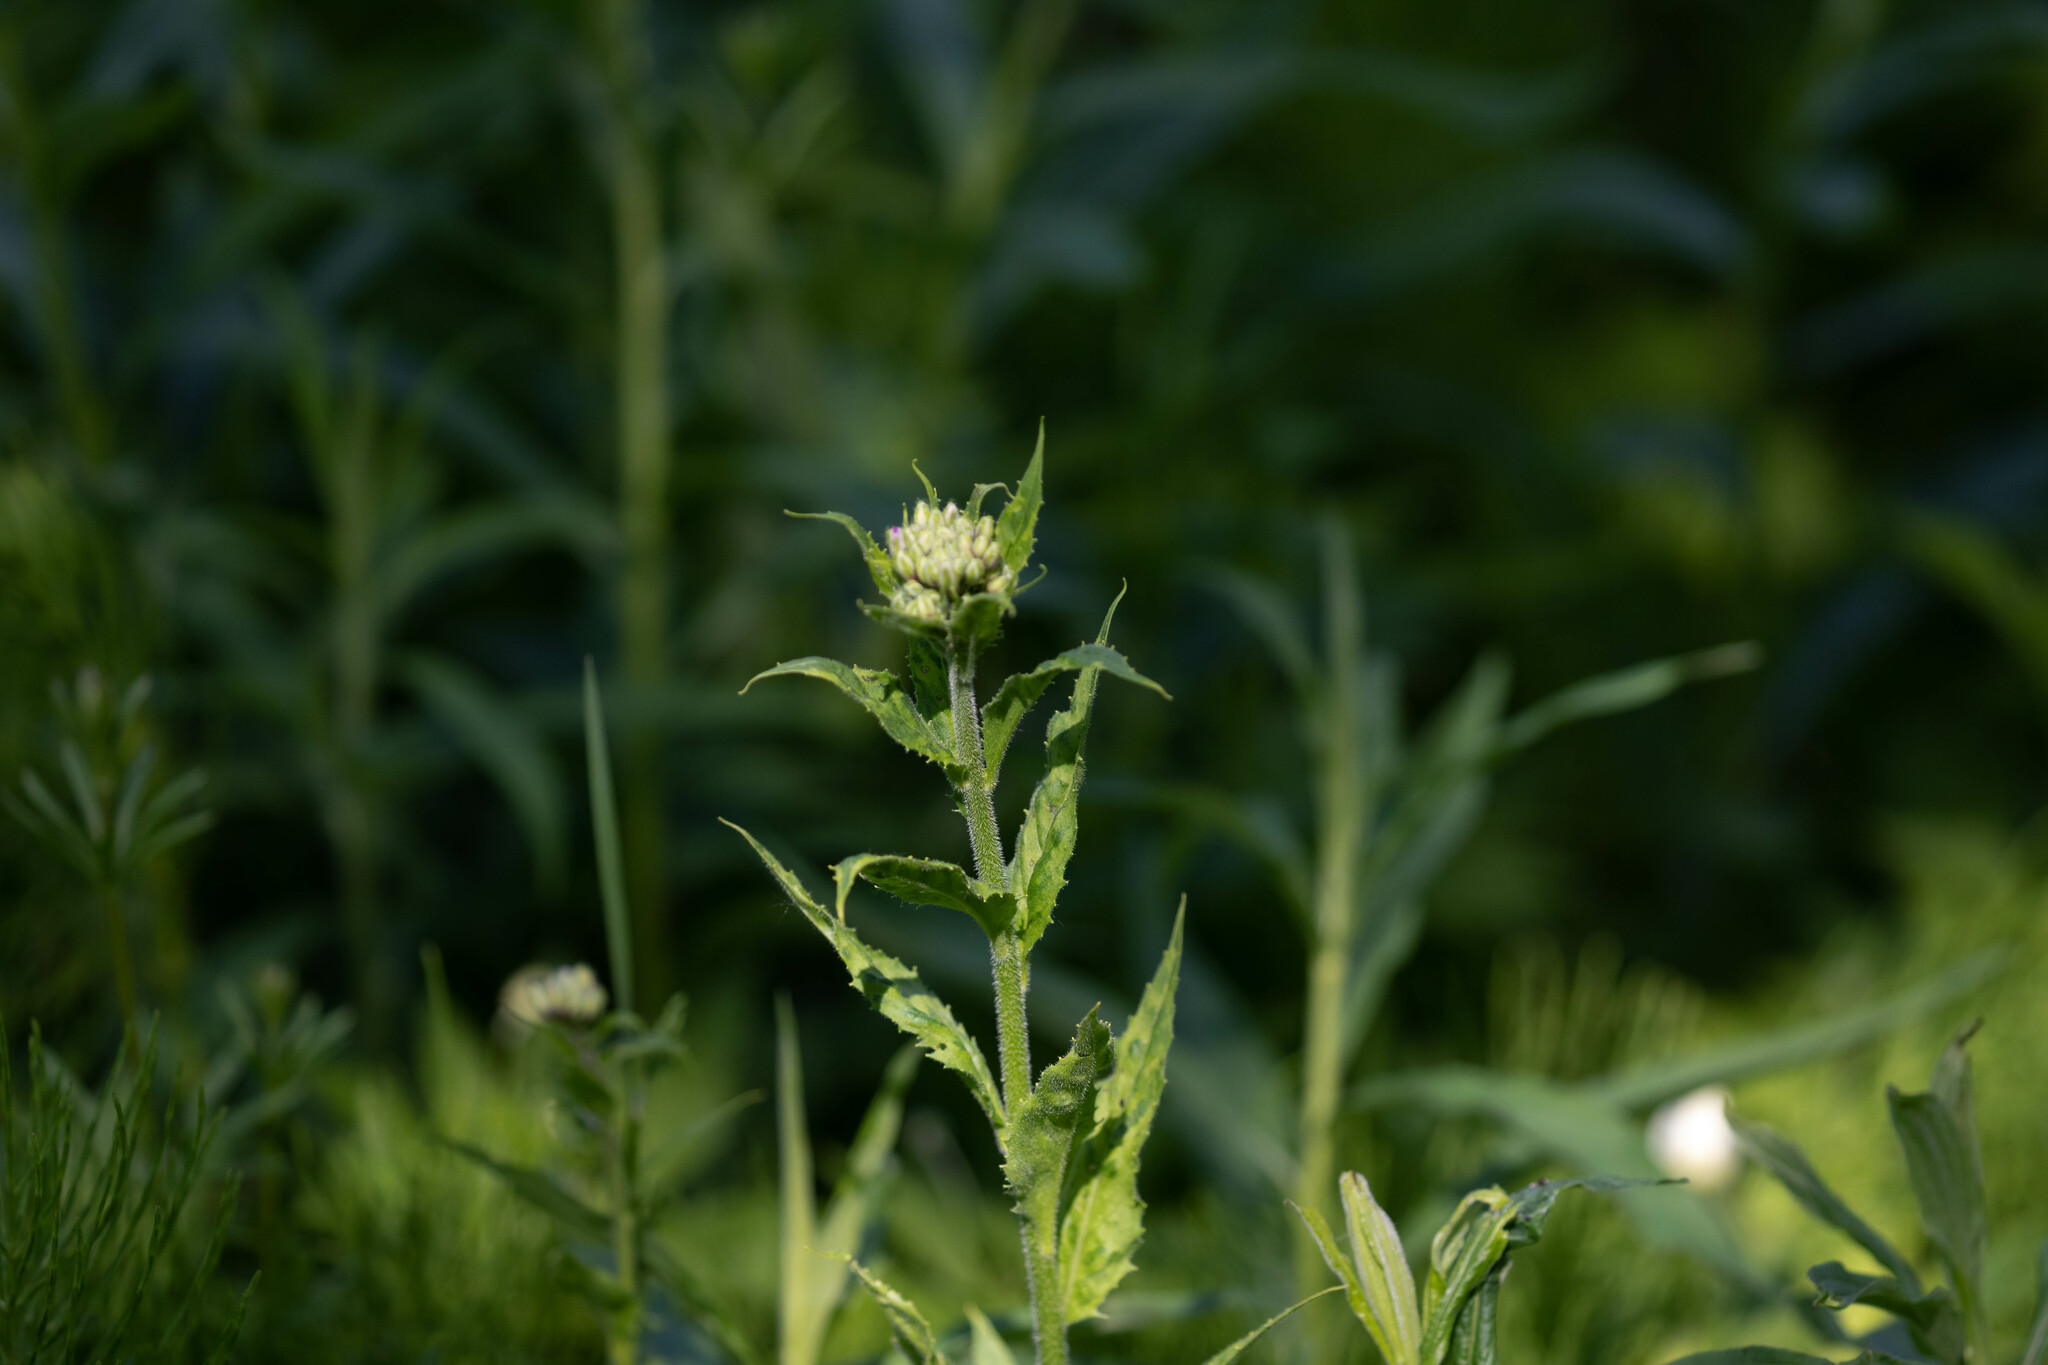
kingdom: Plantae
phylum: Tracheophyta
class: Magnoliopsida
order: Brassicales
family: Brassicaceae
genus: Hesperis
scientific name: Hesperis matronalis
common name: Dame's-violet
